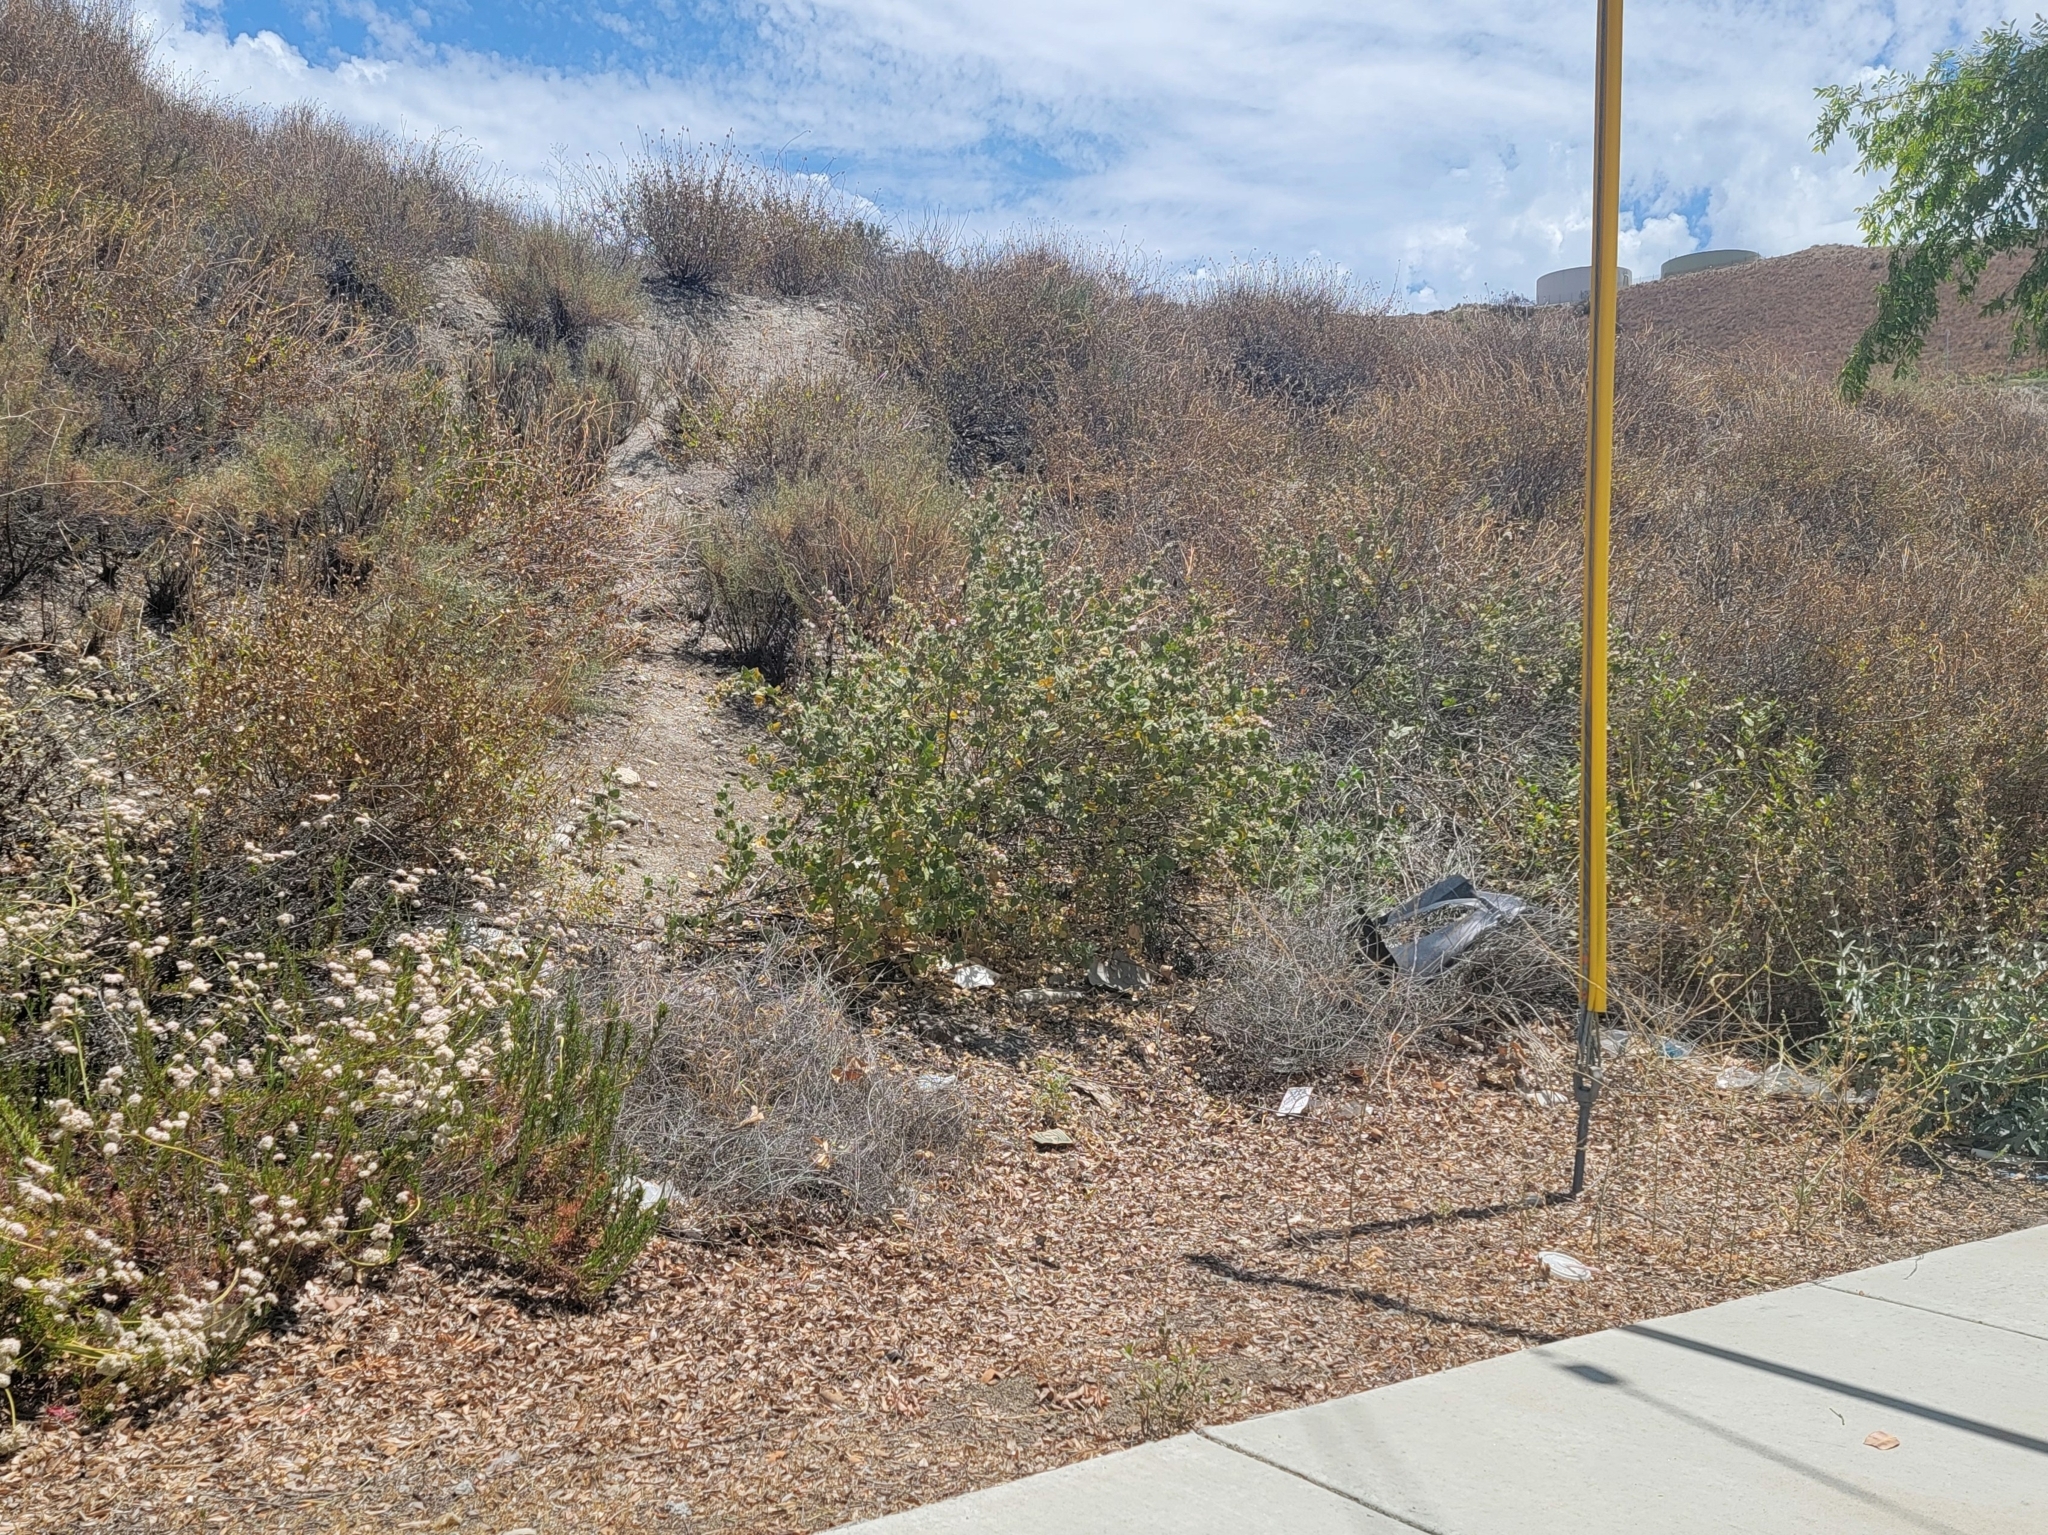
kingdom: Plantae
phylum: Tracheophyta
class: Magnoliopsida
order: Malvales
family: Malvaceae
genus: Malacothamnus
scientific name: Malacothamnus marrubioides
